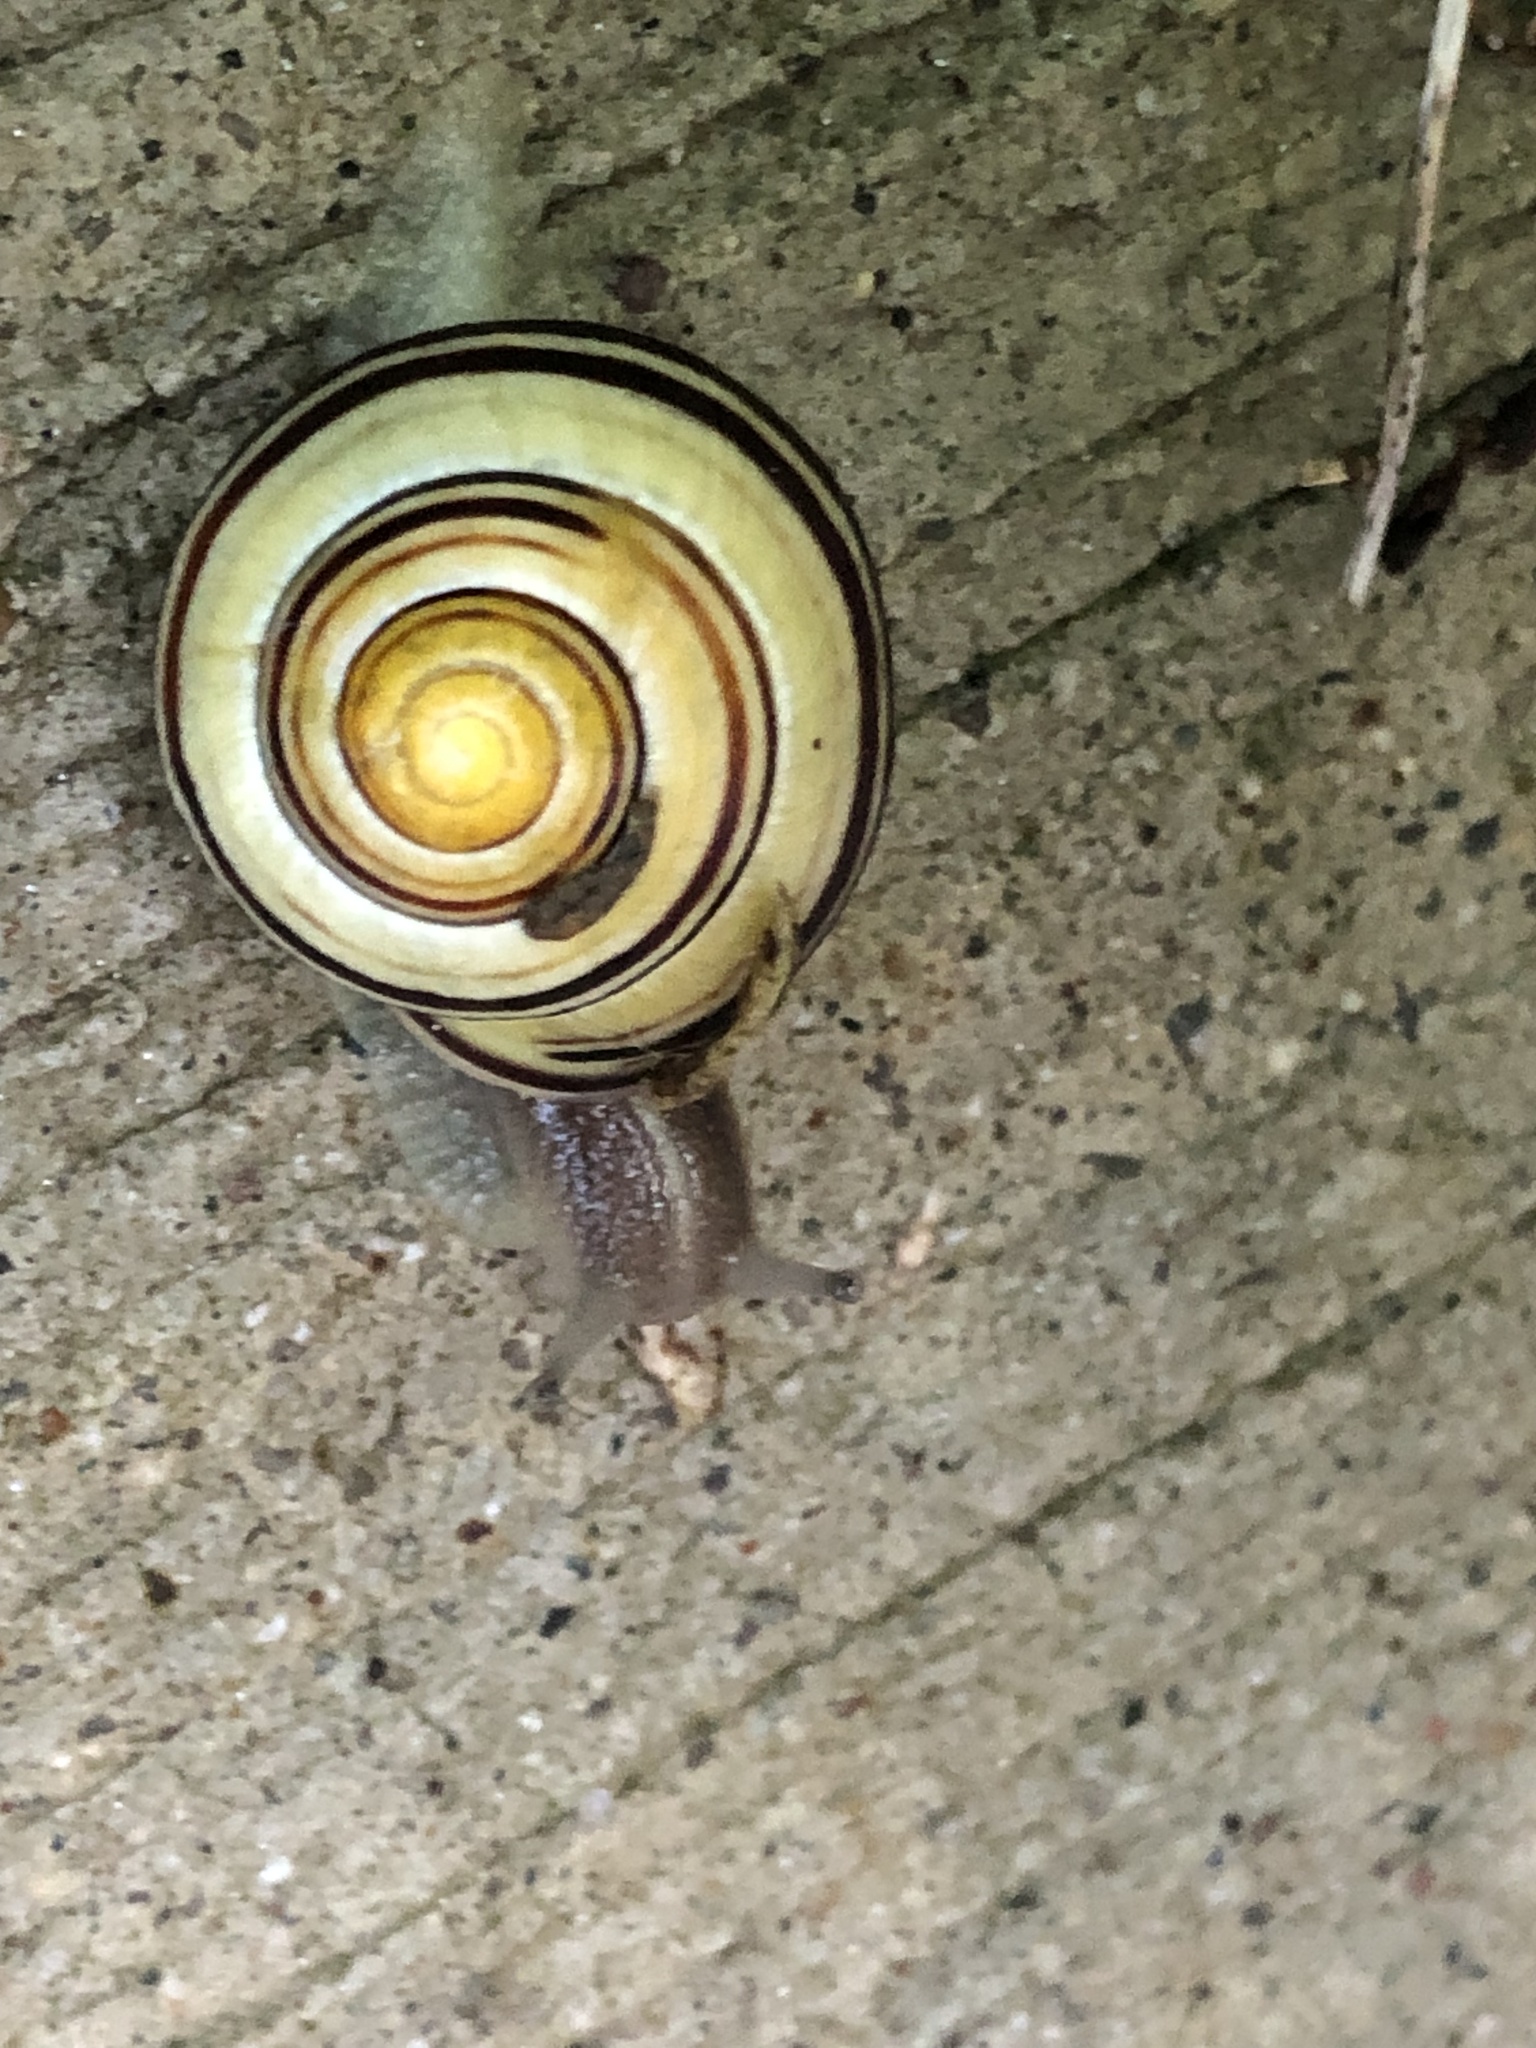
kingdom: Animalia
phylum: Mollusca
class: Gastropoda
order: Stylommatophora
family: Helicidae
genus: Cepaea
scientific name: Cepaea nemoralis
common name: Grovesnail
